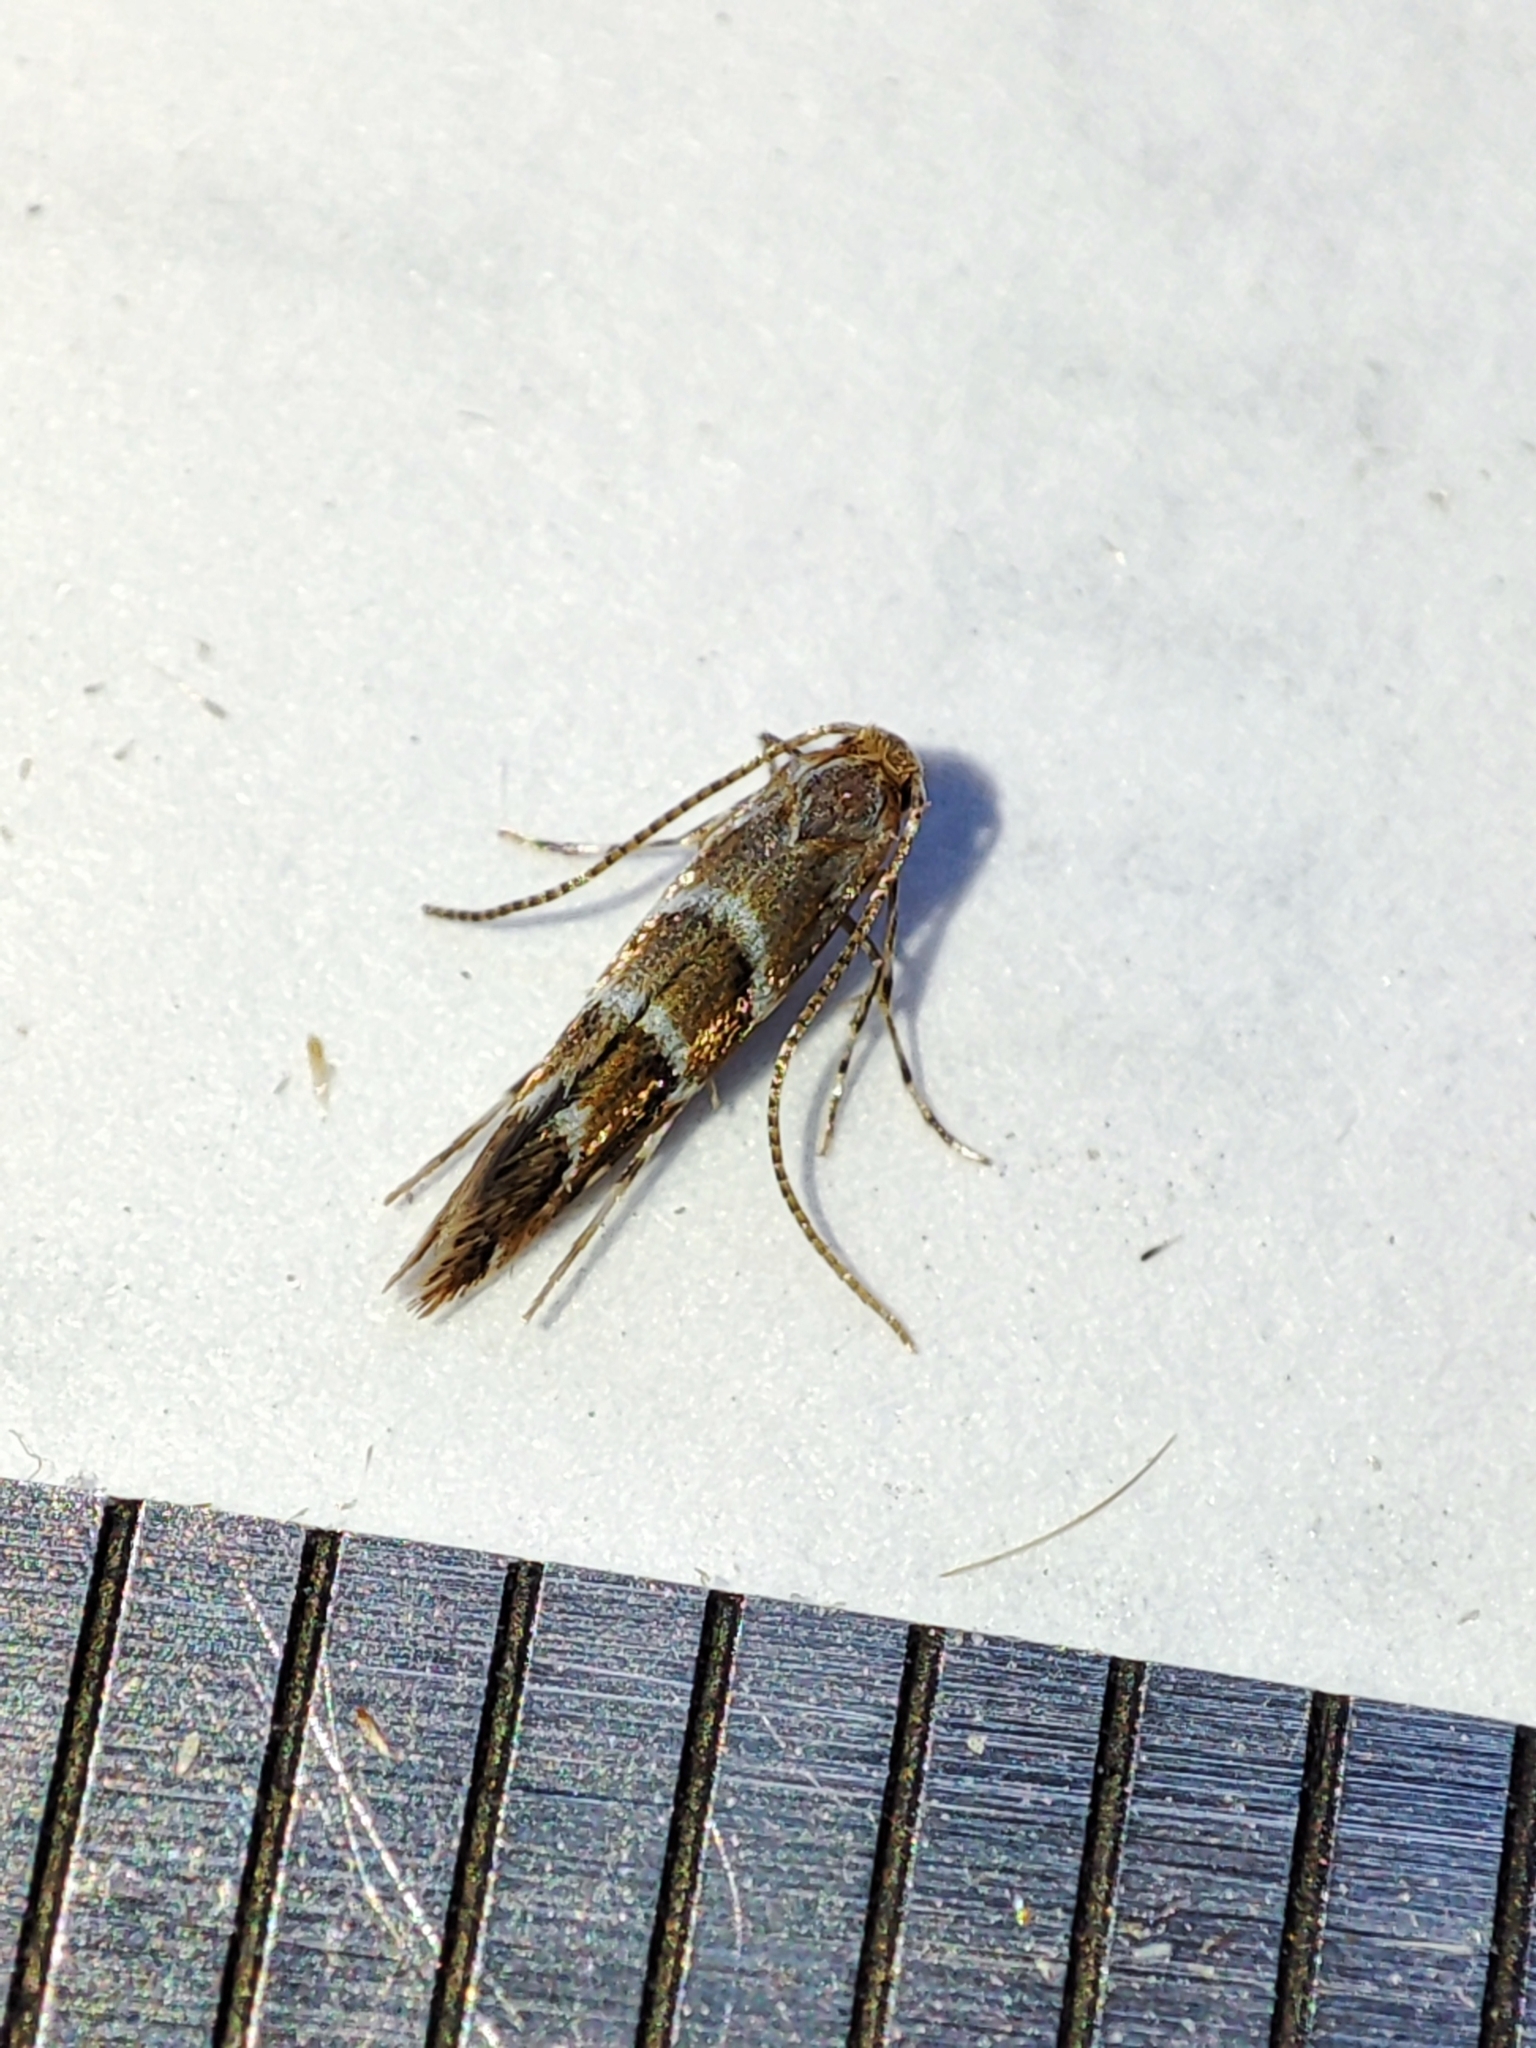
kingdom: Animalia
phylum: Arthropoda
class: Insecta
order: Lepidoptera
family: Gracillariidae
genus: Cameraria
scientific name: Cameraria ohridella
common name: Horse-chestnut leaf-miner
